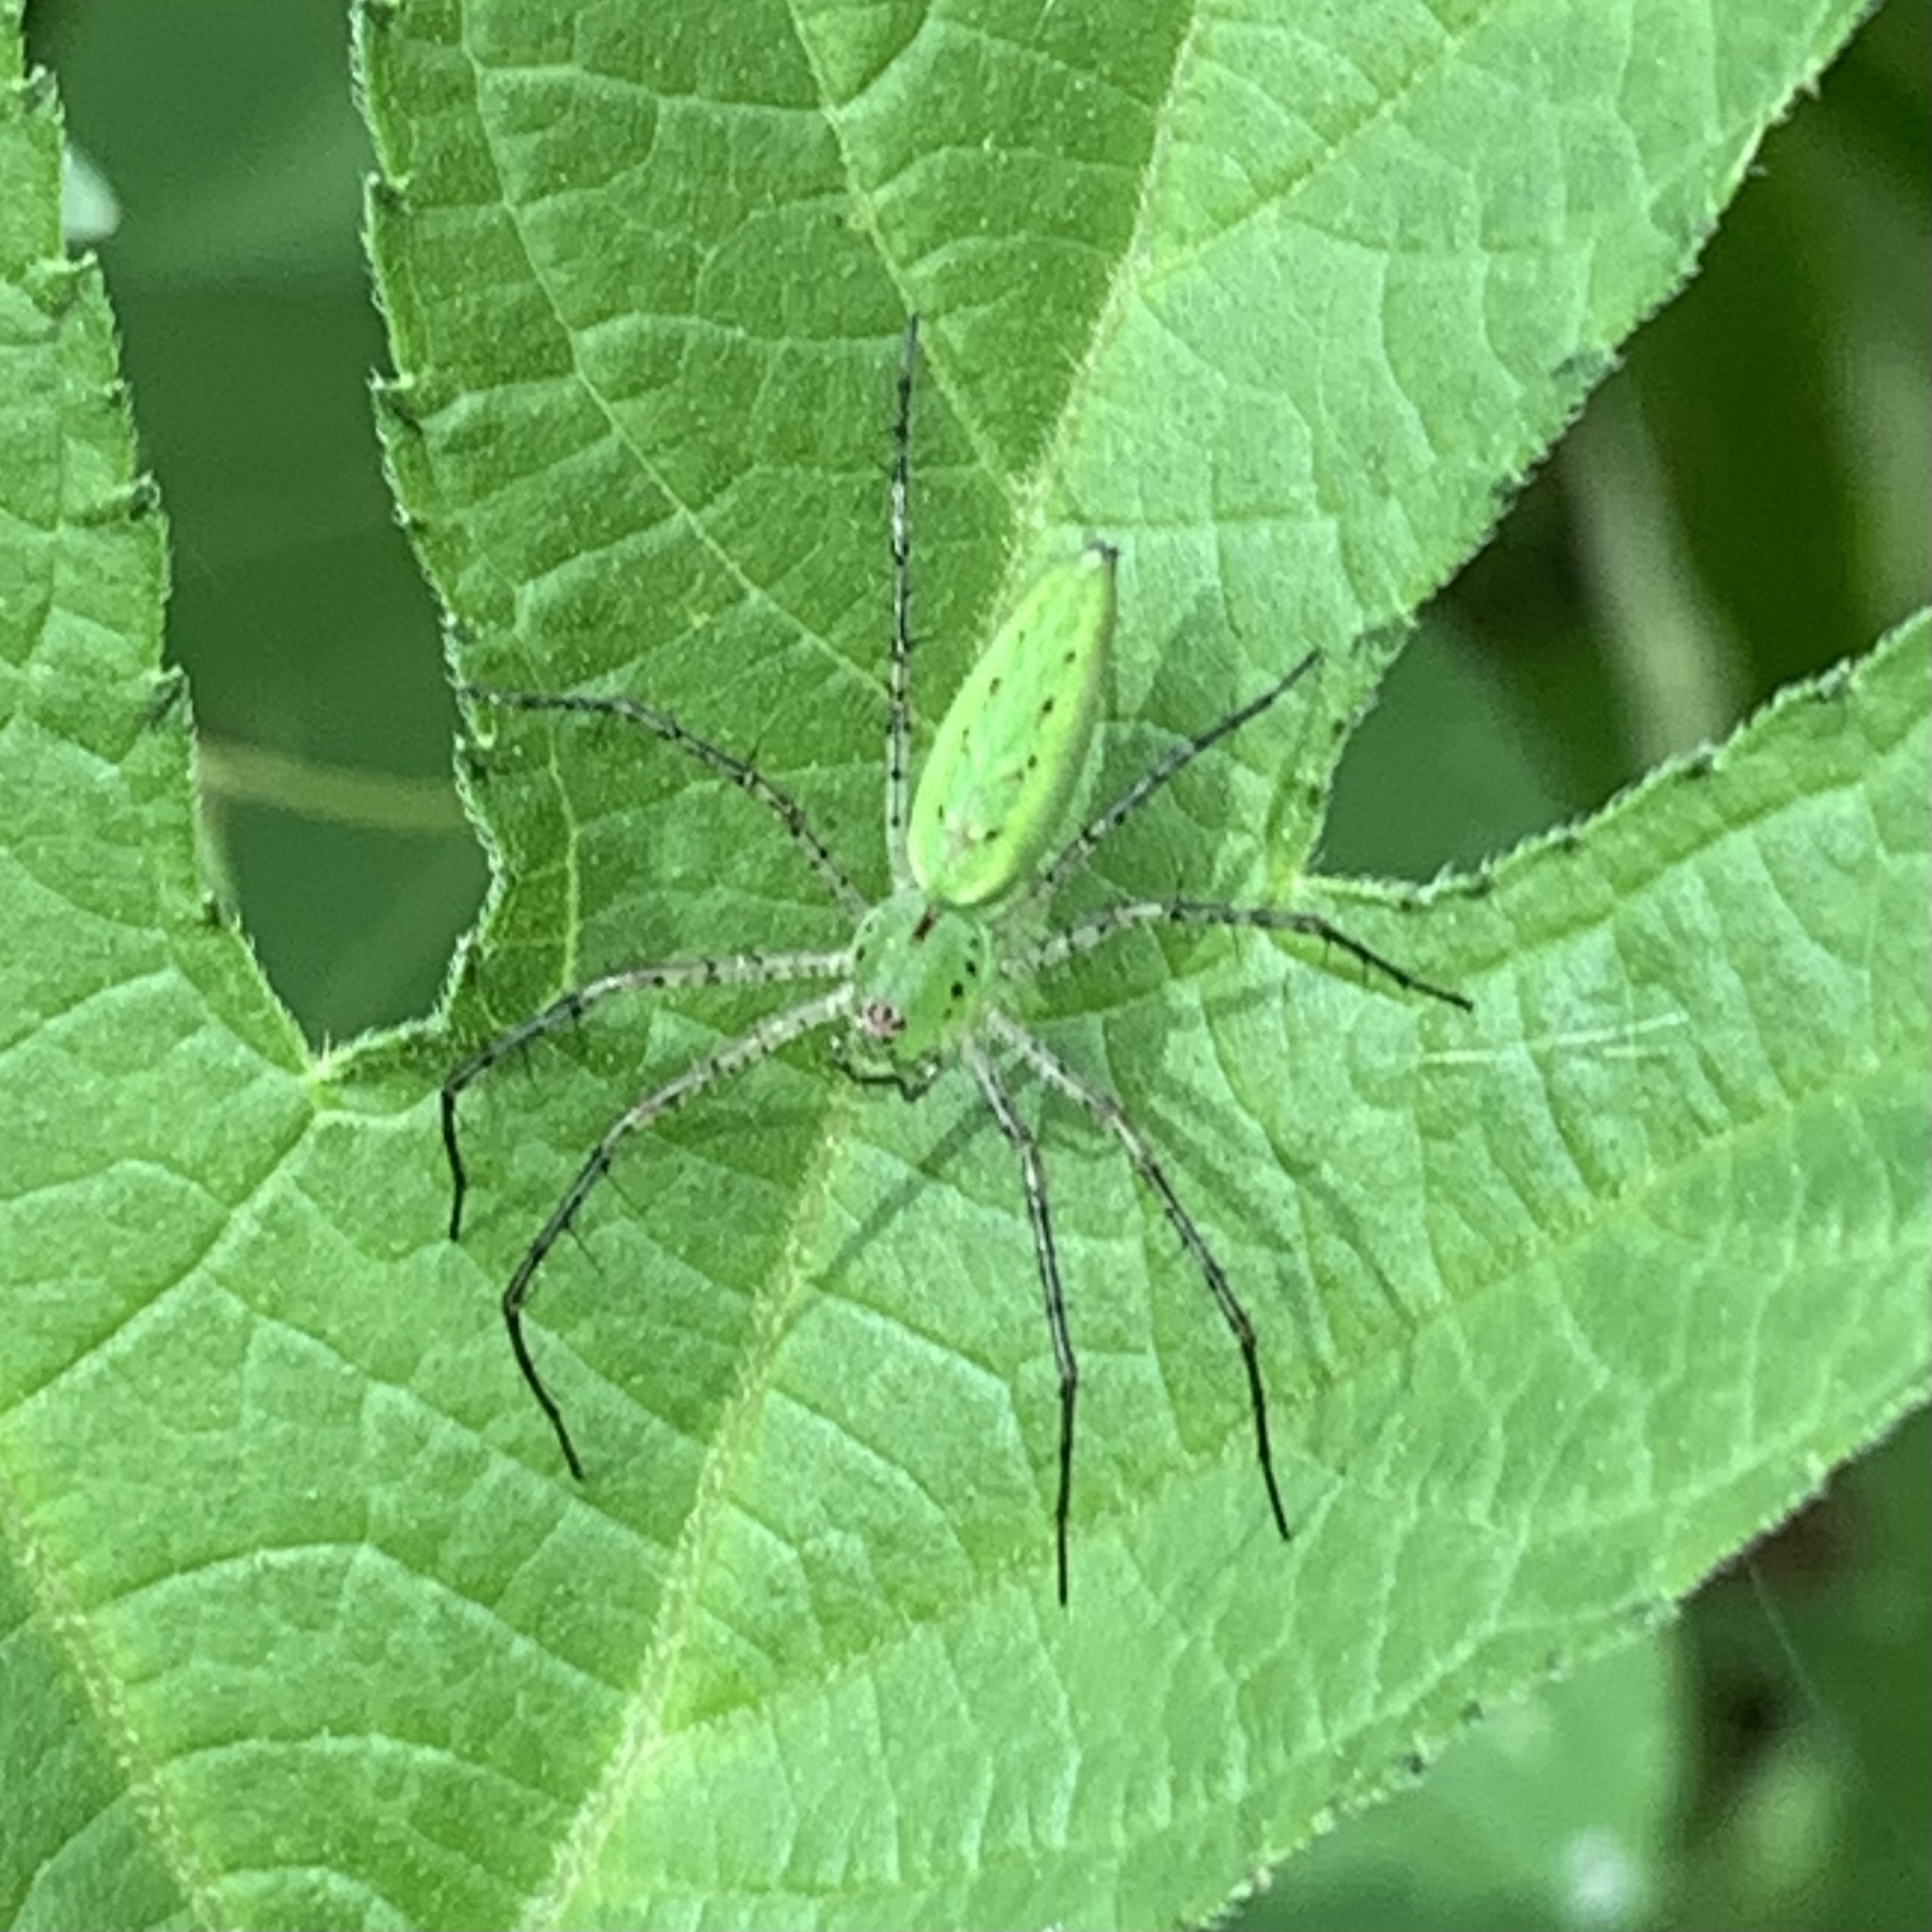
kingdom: Animalia
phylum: Arthropoda
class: Arachnida
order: Araneae
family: Oxyopidae
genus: Peucetia
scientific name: Peucetia viridans
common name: Lynx spiders
